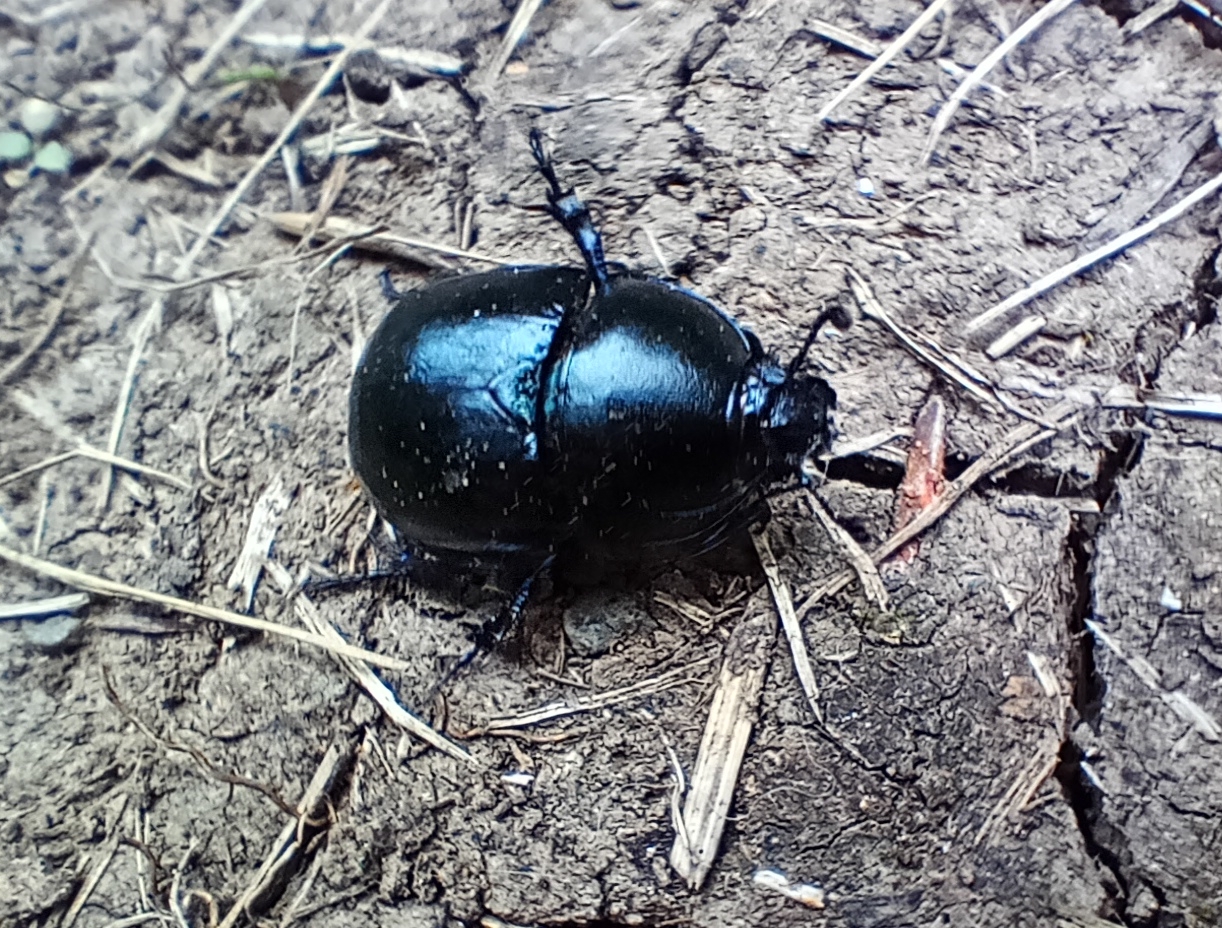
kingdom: Animalia
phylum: Arthropoda
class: Insecta
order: Coleoptera
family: Geotrupidae
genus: Trypocopris
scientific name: Trypocopris vernalis
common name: Spring dumbledor
